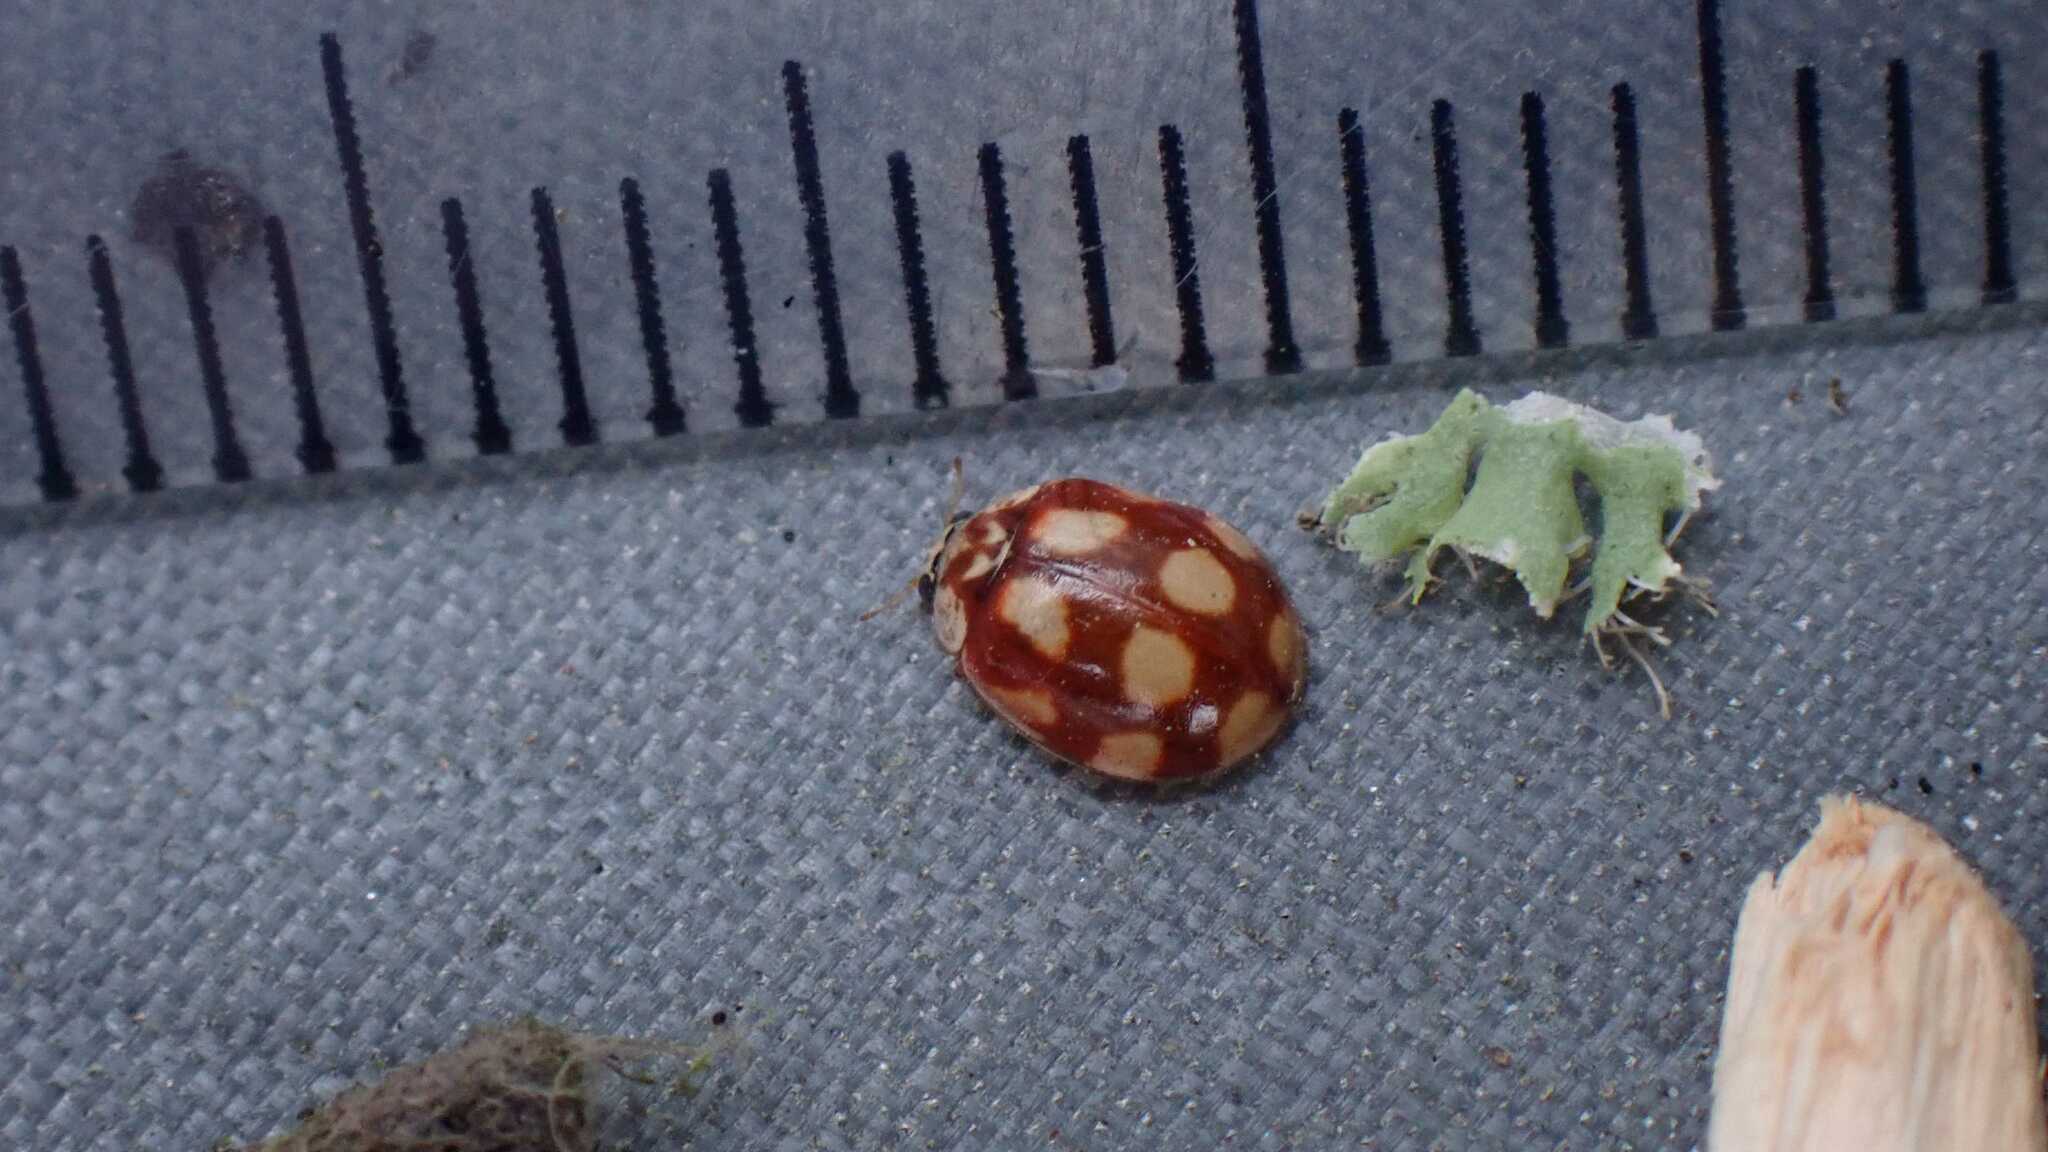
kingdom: Animalia
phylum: Arthropoda
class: Insecta
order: Coleoptera
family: Coccinellidae
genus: Adalia
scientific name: Adalia decempunctata
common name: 10-spot ladybird
